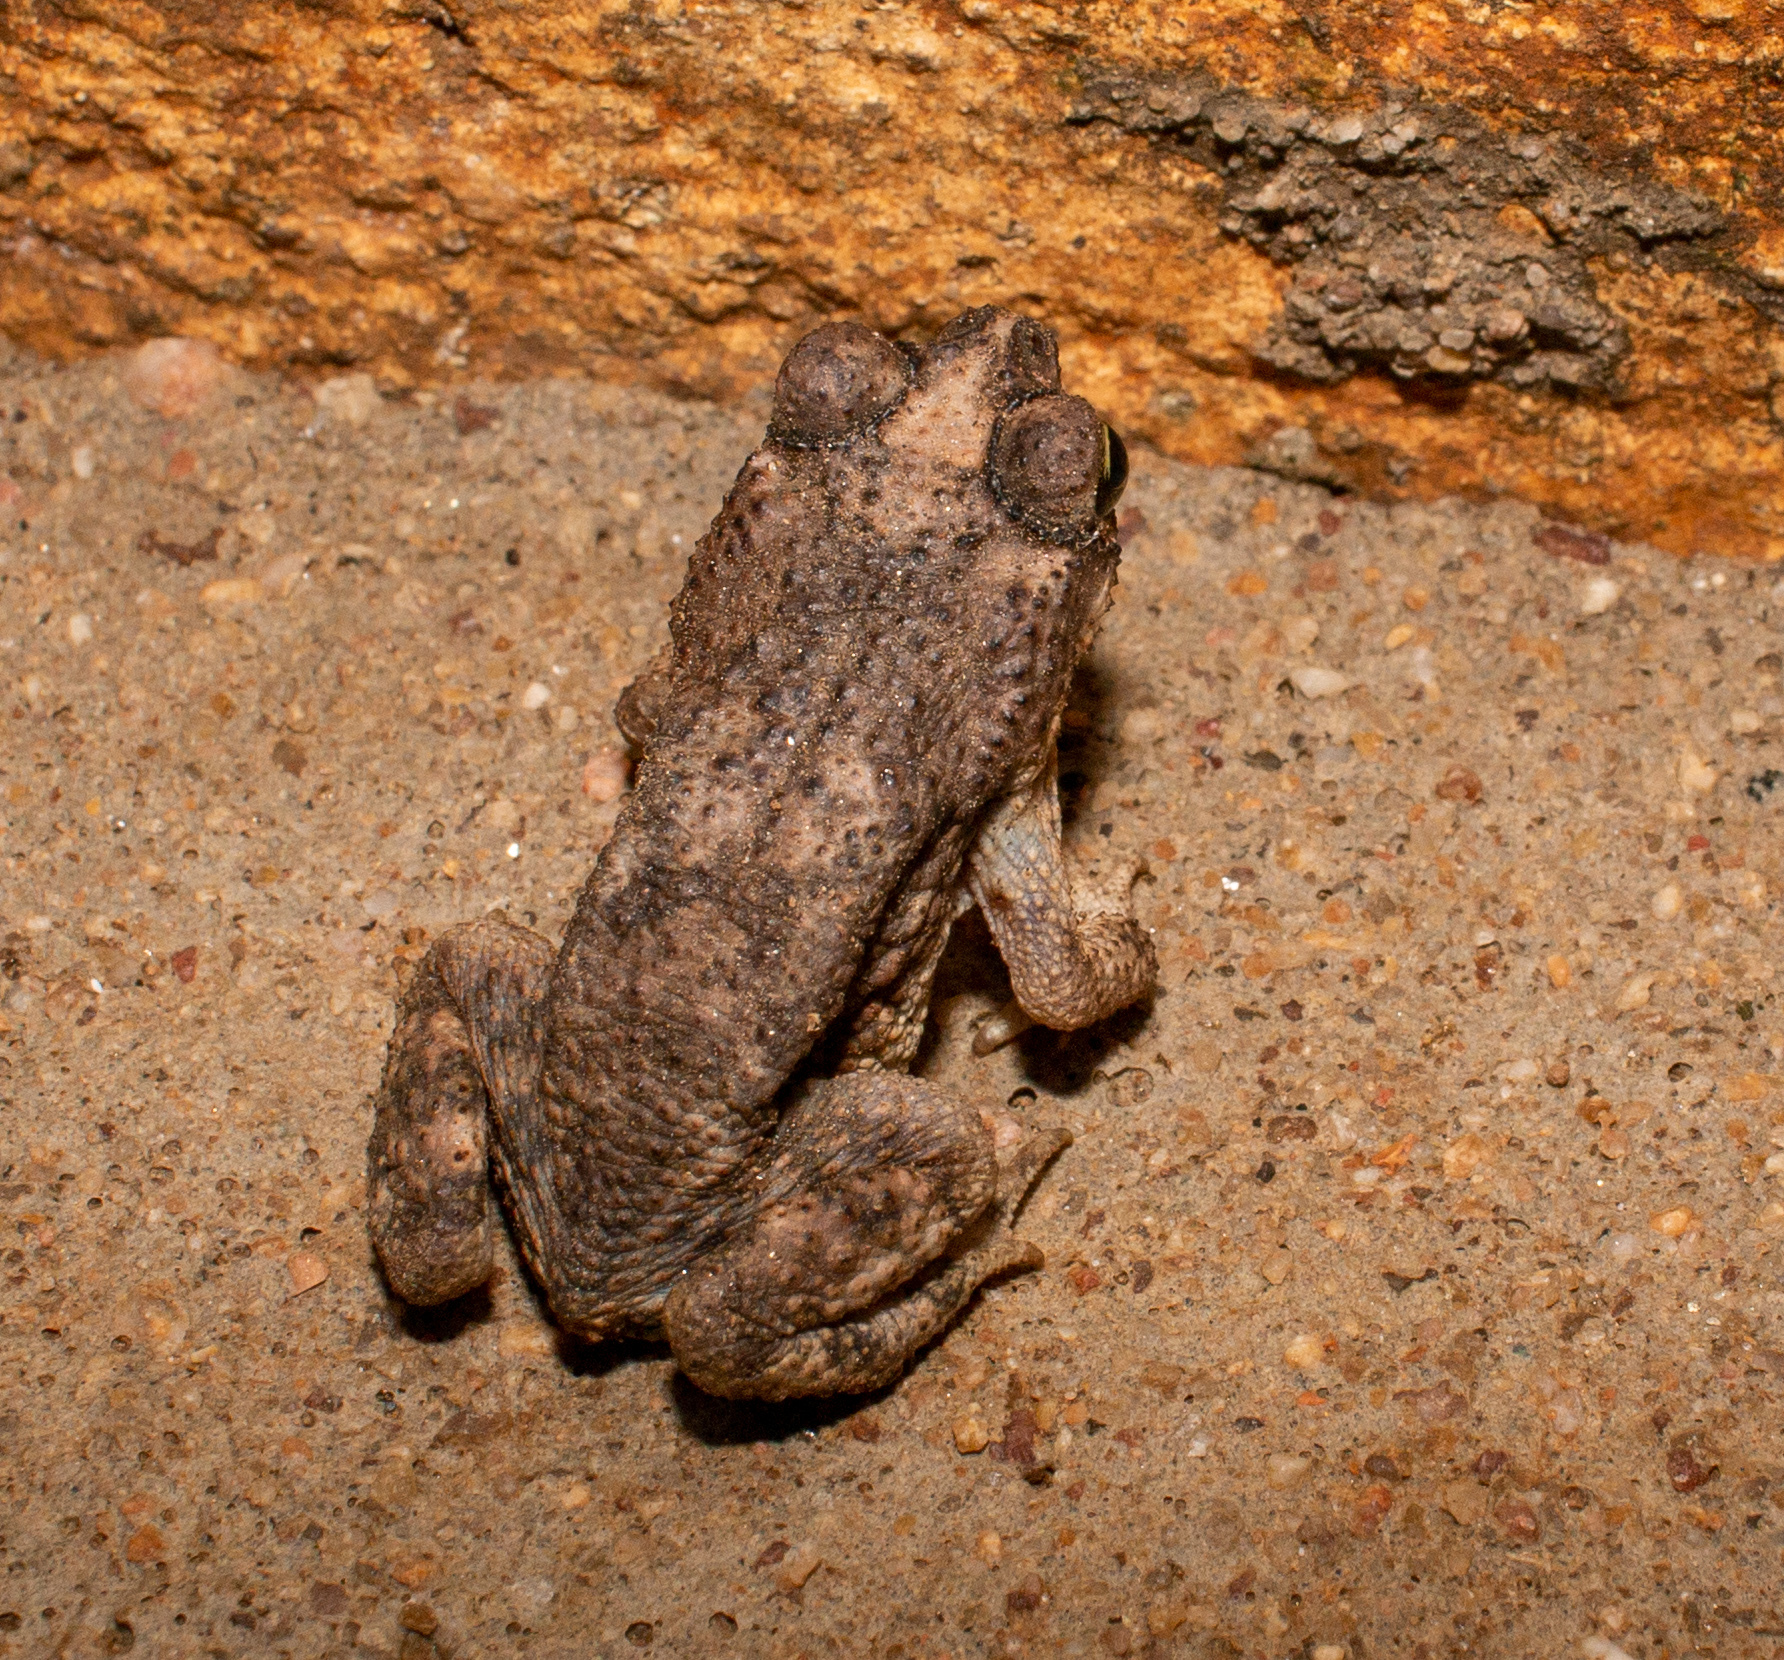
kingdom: Animalia
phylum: Chordata
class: Amphibia
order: Anura
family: Bufonidae
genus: Rhinella
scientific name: Rhinella granulosa
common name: Common lesser toad
